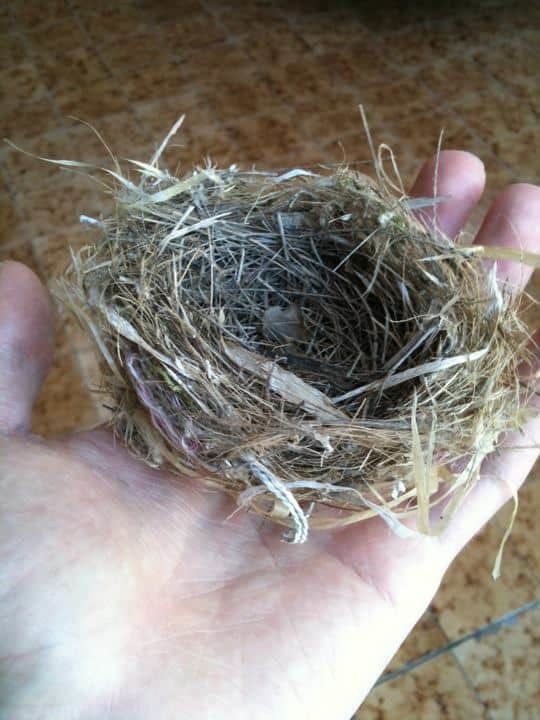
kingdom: Animalia
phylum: Chordata
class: Aves
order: Passeriformes
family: Turdidae
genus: Turdus
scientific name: Turdus grayi
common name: Clay-colored thrush
